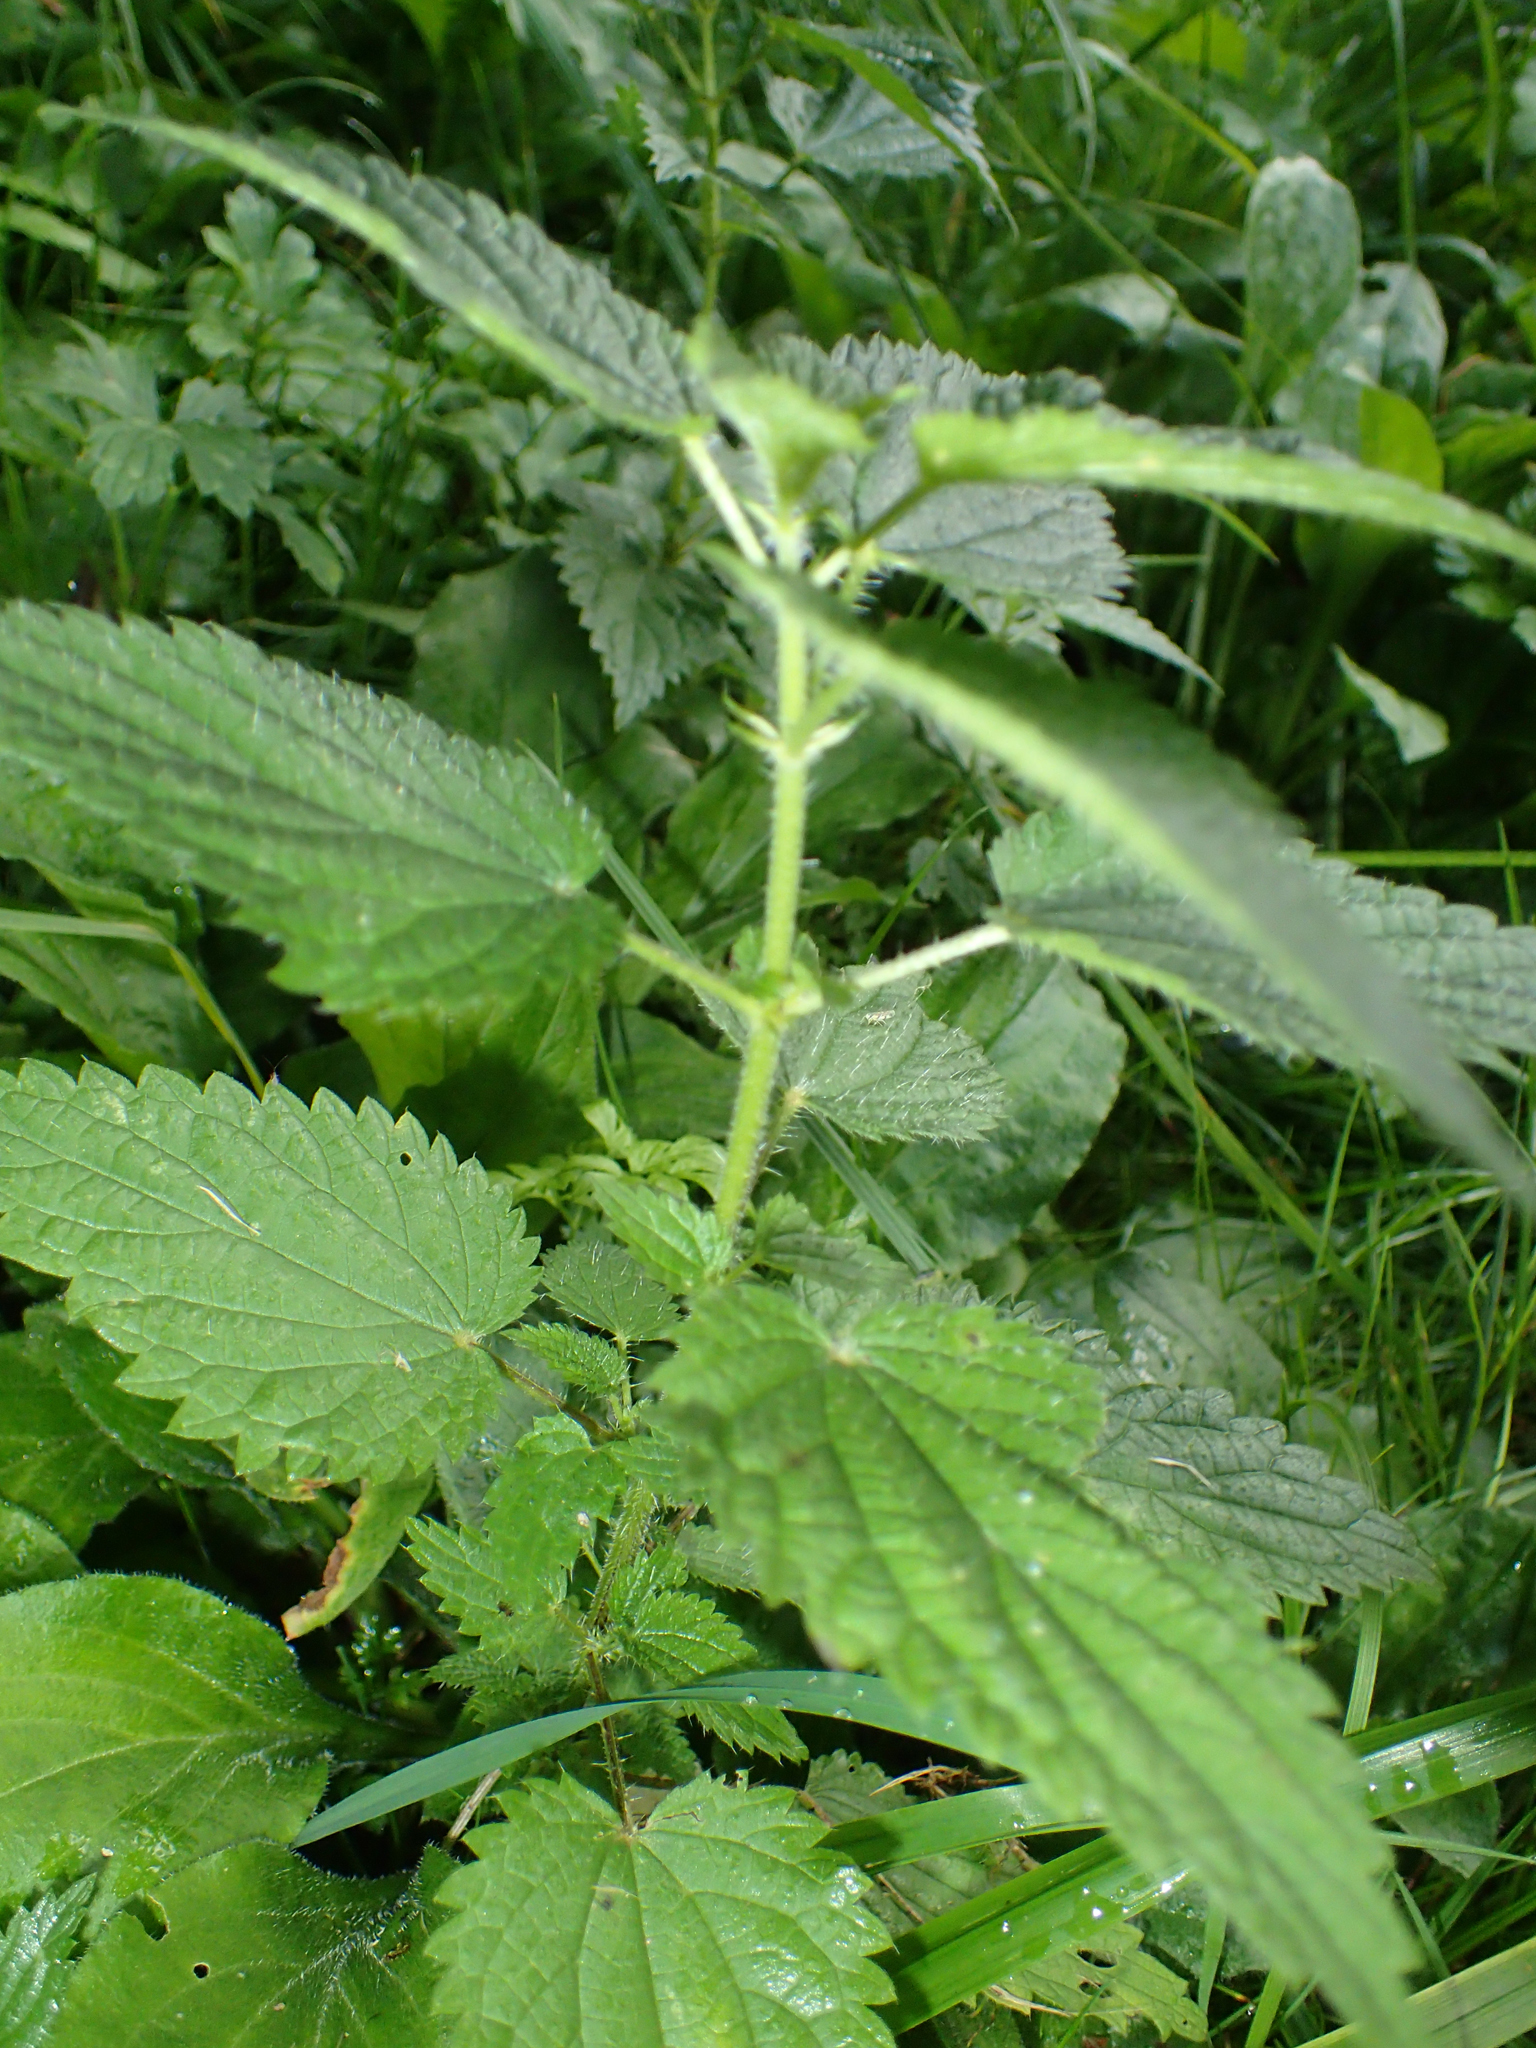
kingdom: Plantae
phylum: Tracheophyta
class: Magnoliopsida
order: Rosales
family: Urticaceae
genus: Urtica
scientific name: Urtica dioica
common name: Common nettle
